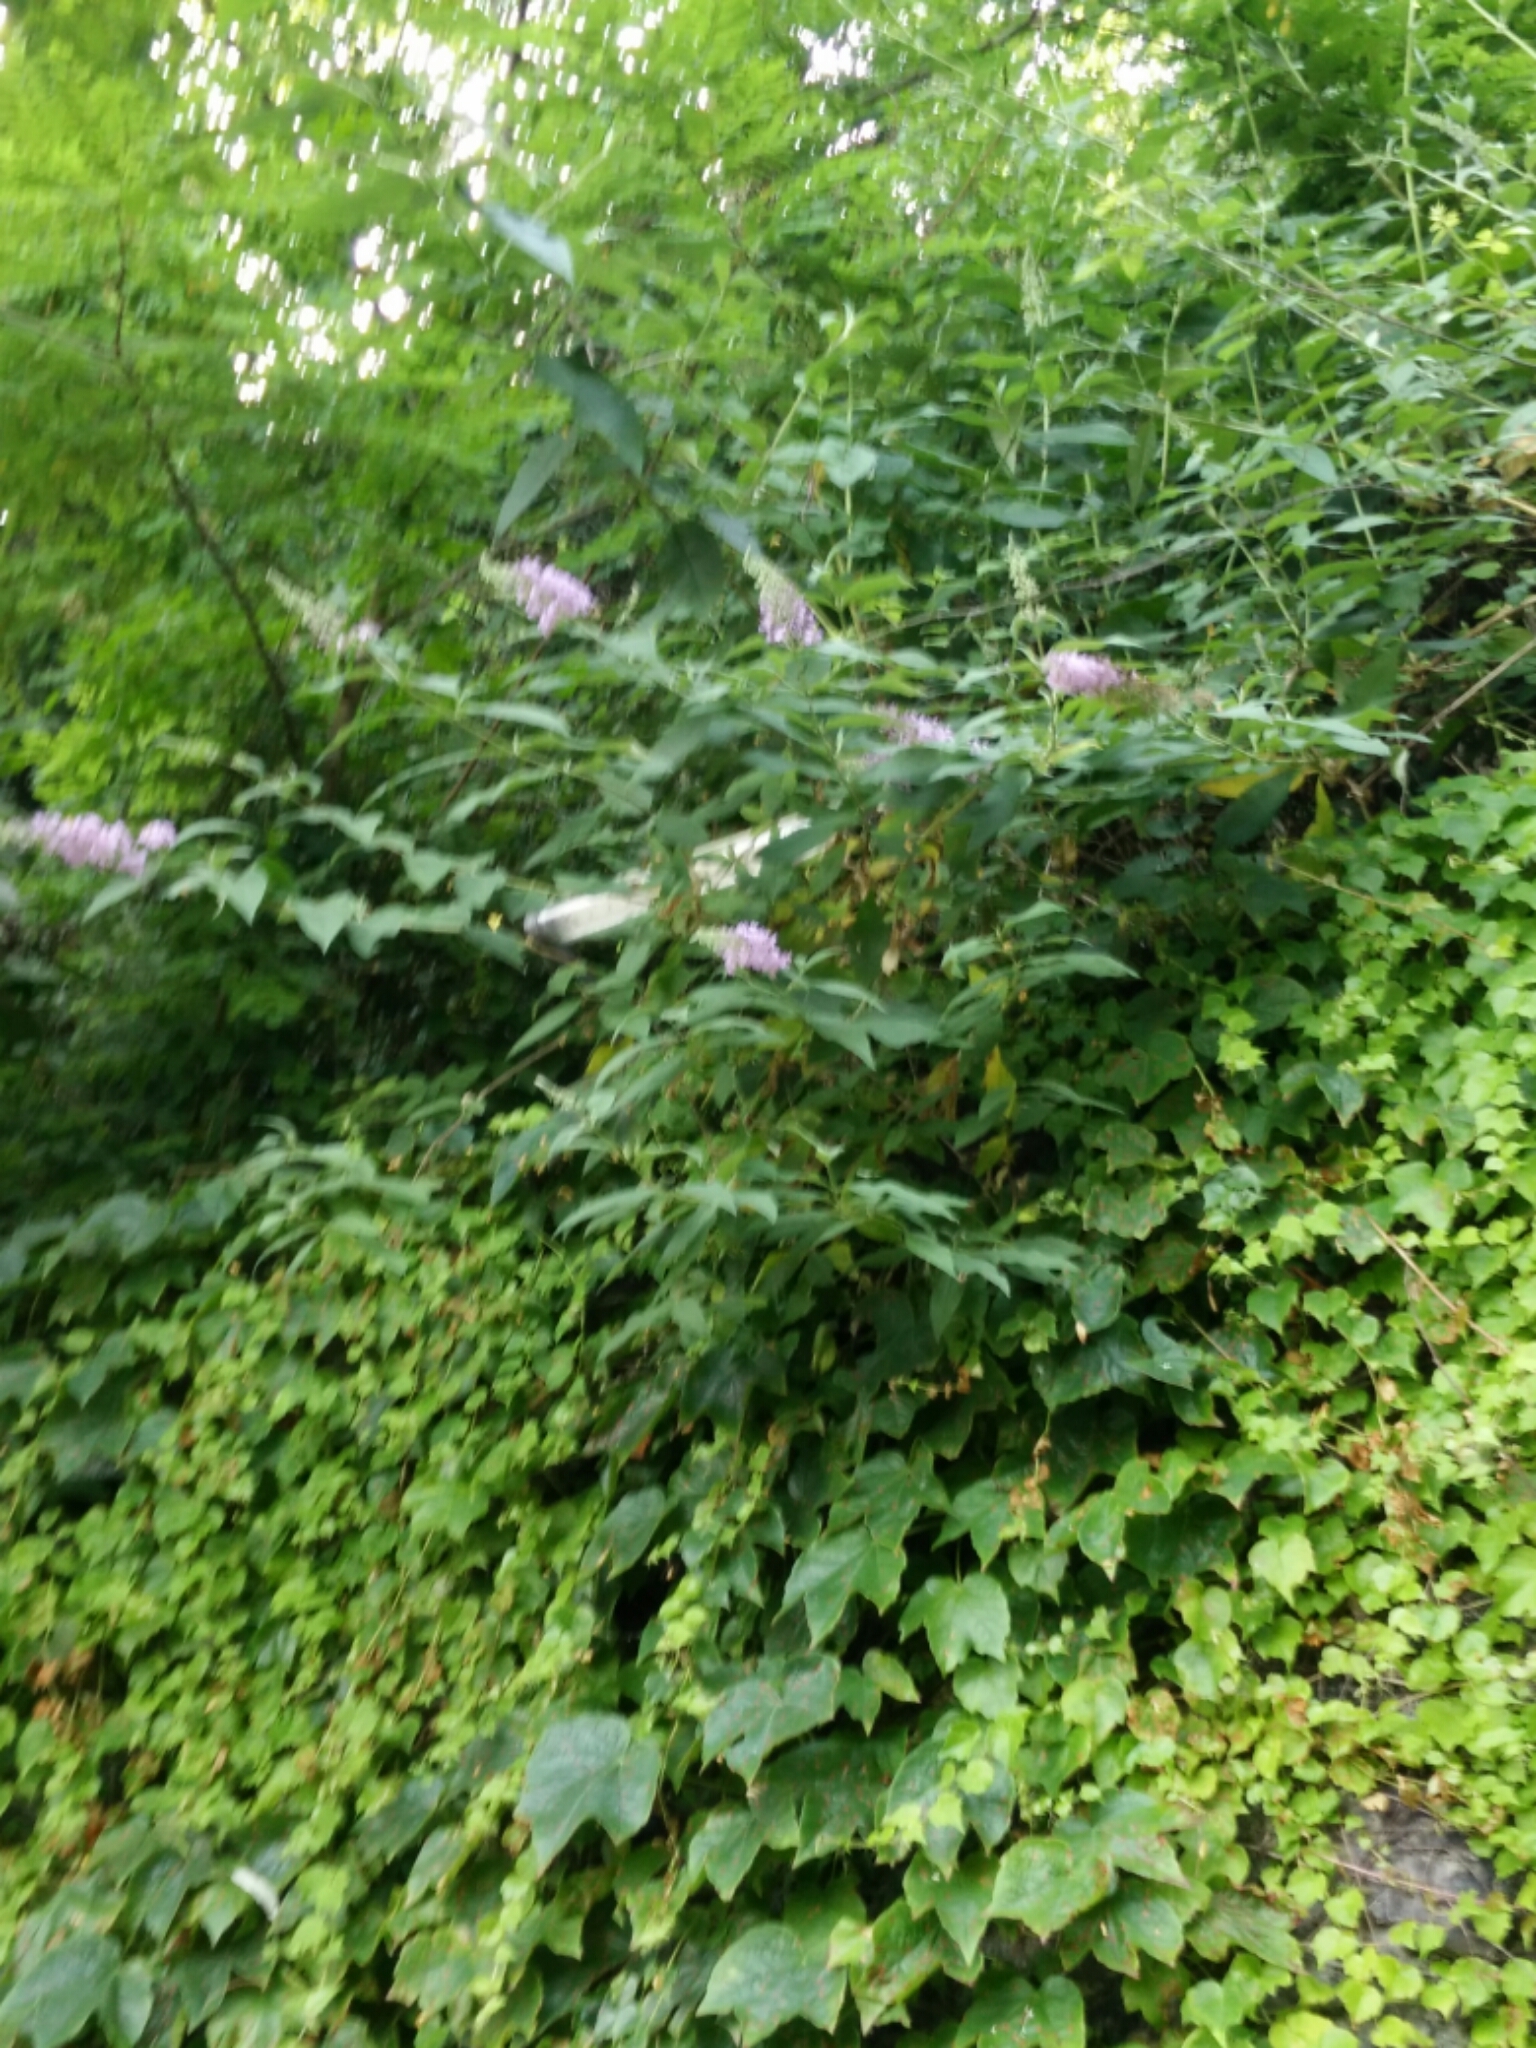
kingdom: Plantae
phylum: Tracheophyta
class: Magnoliopsida
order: Lamiales
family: Scrophulariaceae
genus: Buddleja
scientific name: Buddleja davidii
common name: Butterfly-bush
